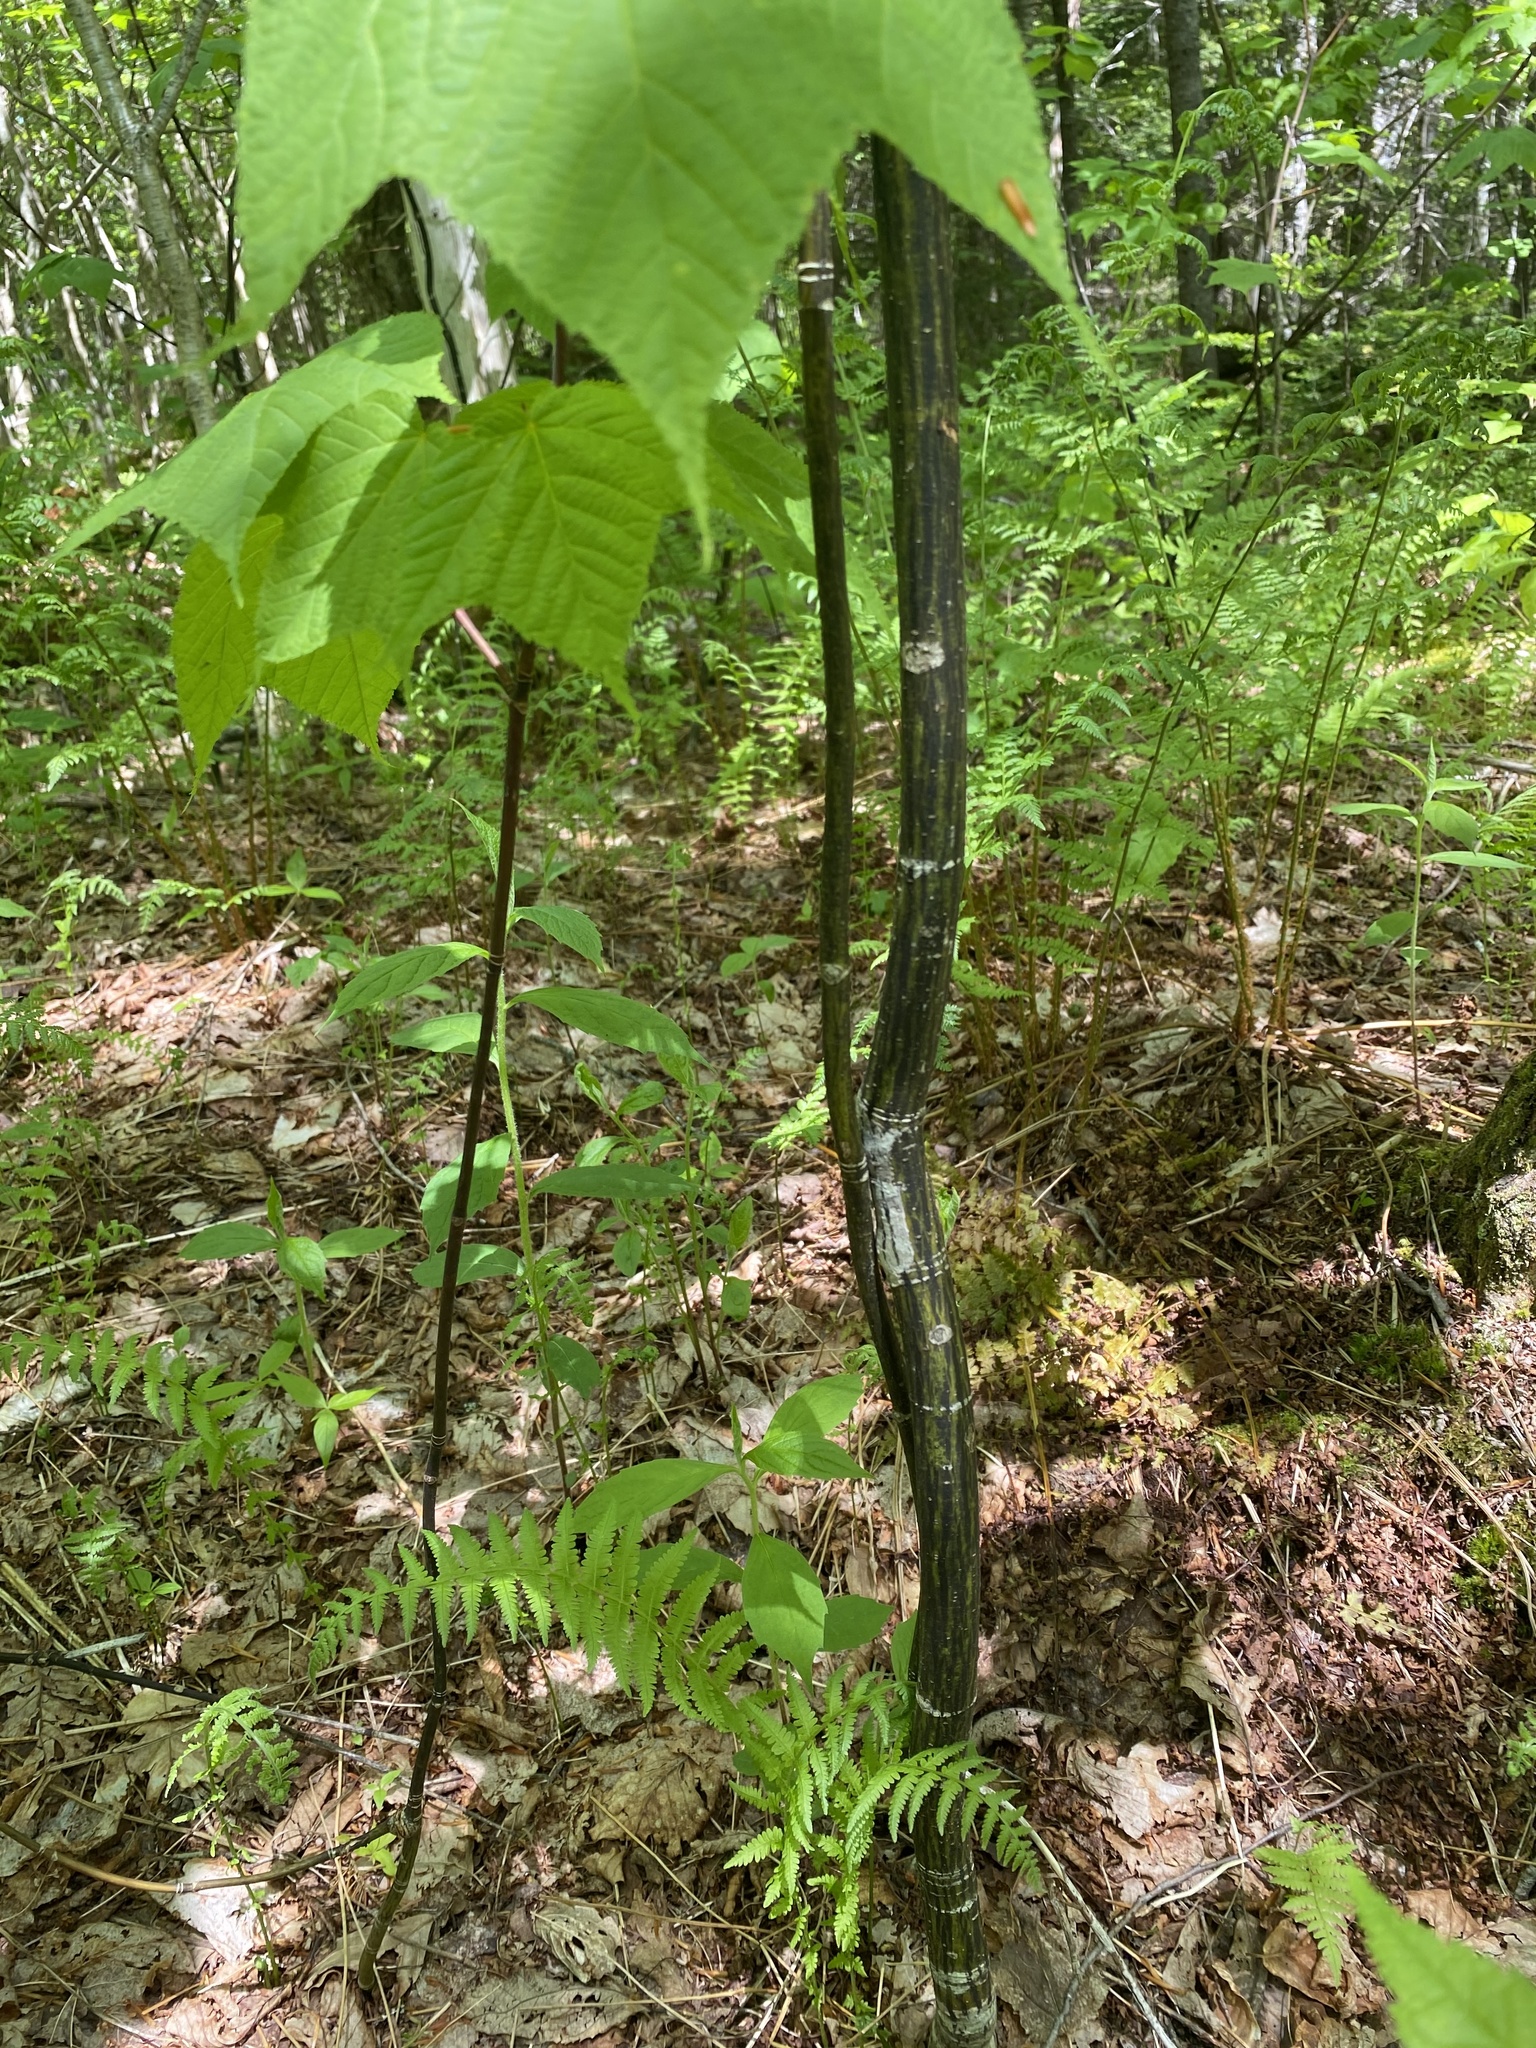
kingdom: Plantae
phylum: Tracheophyta
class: Magnoliopsida
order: Sapindales
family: Sapindaceae
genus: Acer
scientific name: Acer pensylvanicum
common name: Moosewood
